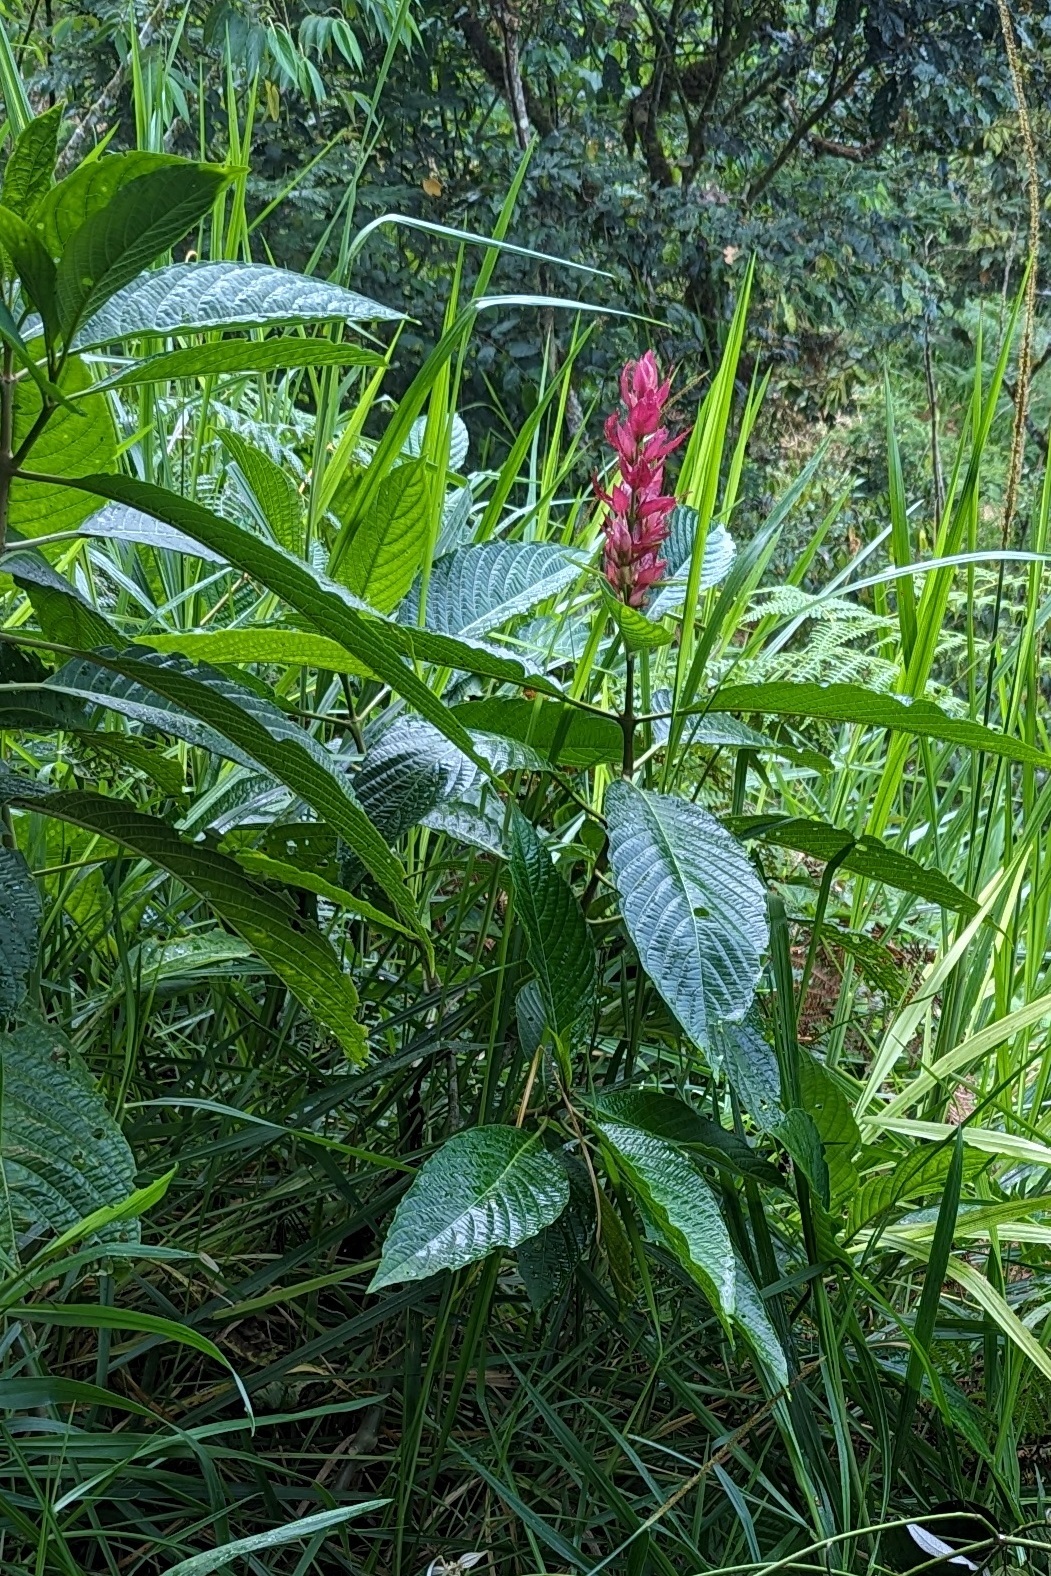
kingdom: Plantae
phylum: Tracheophyta
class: Magnoliopsida
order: Lamiales
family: Acanthaceae
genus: Megaskepasma
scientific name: Megaskepasma erythrochlamys
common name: Brazilian red-cloak
